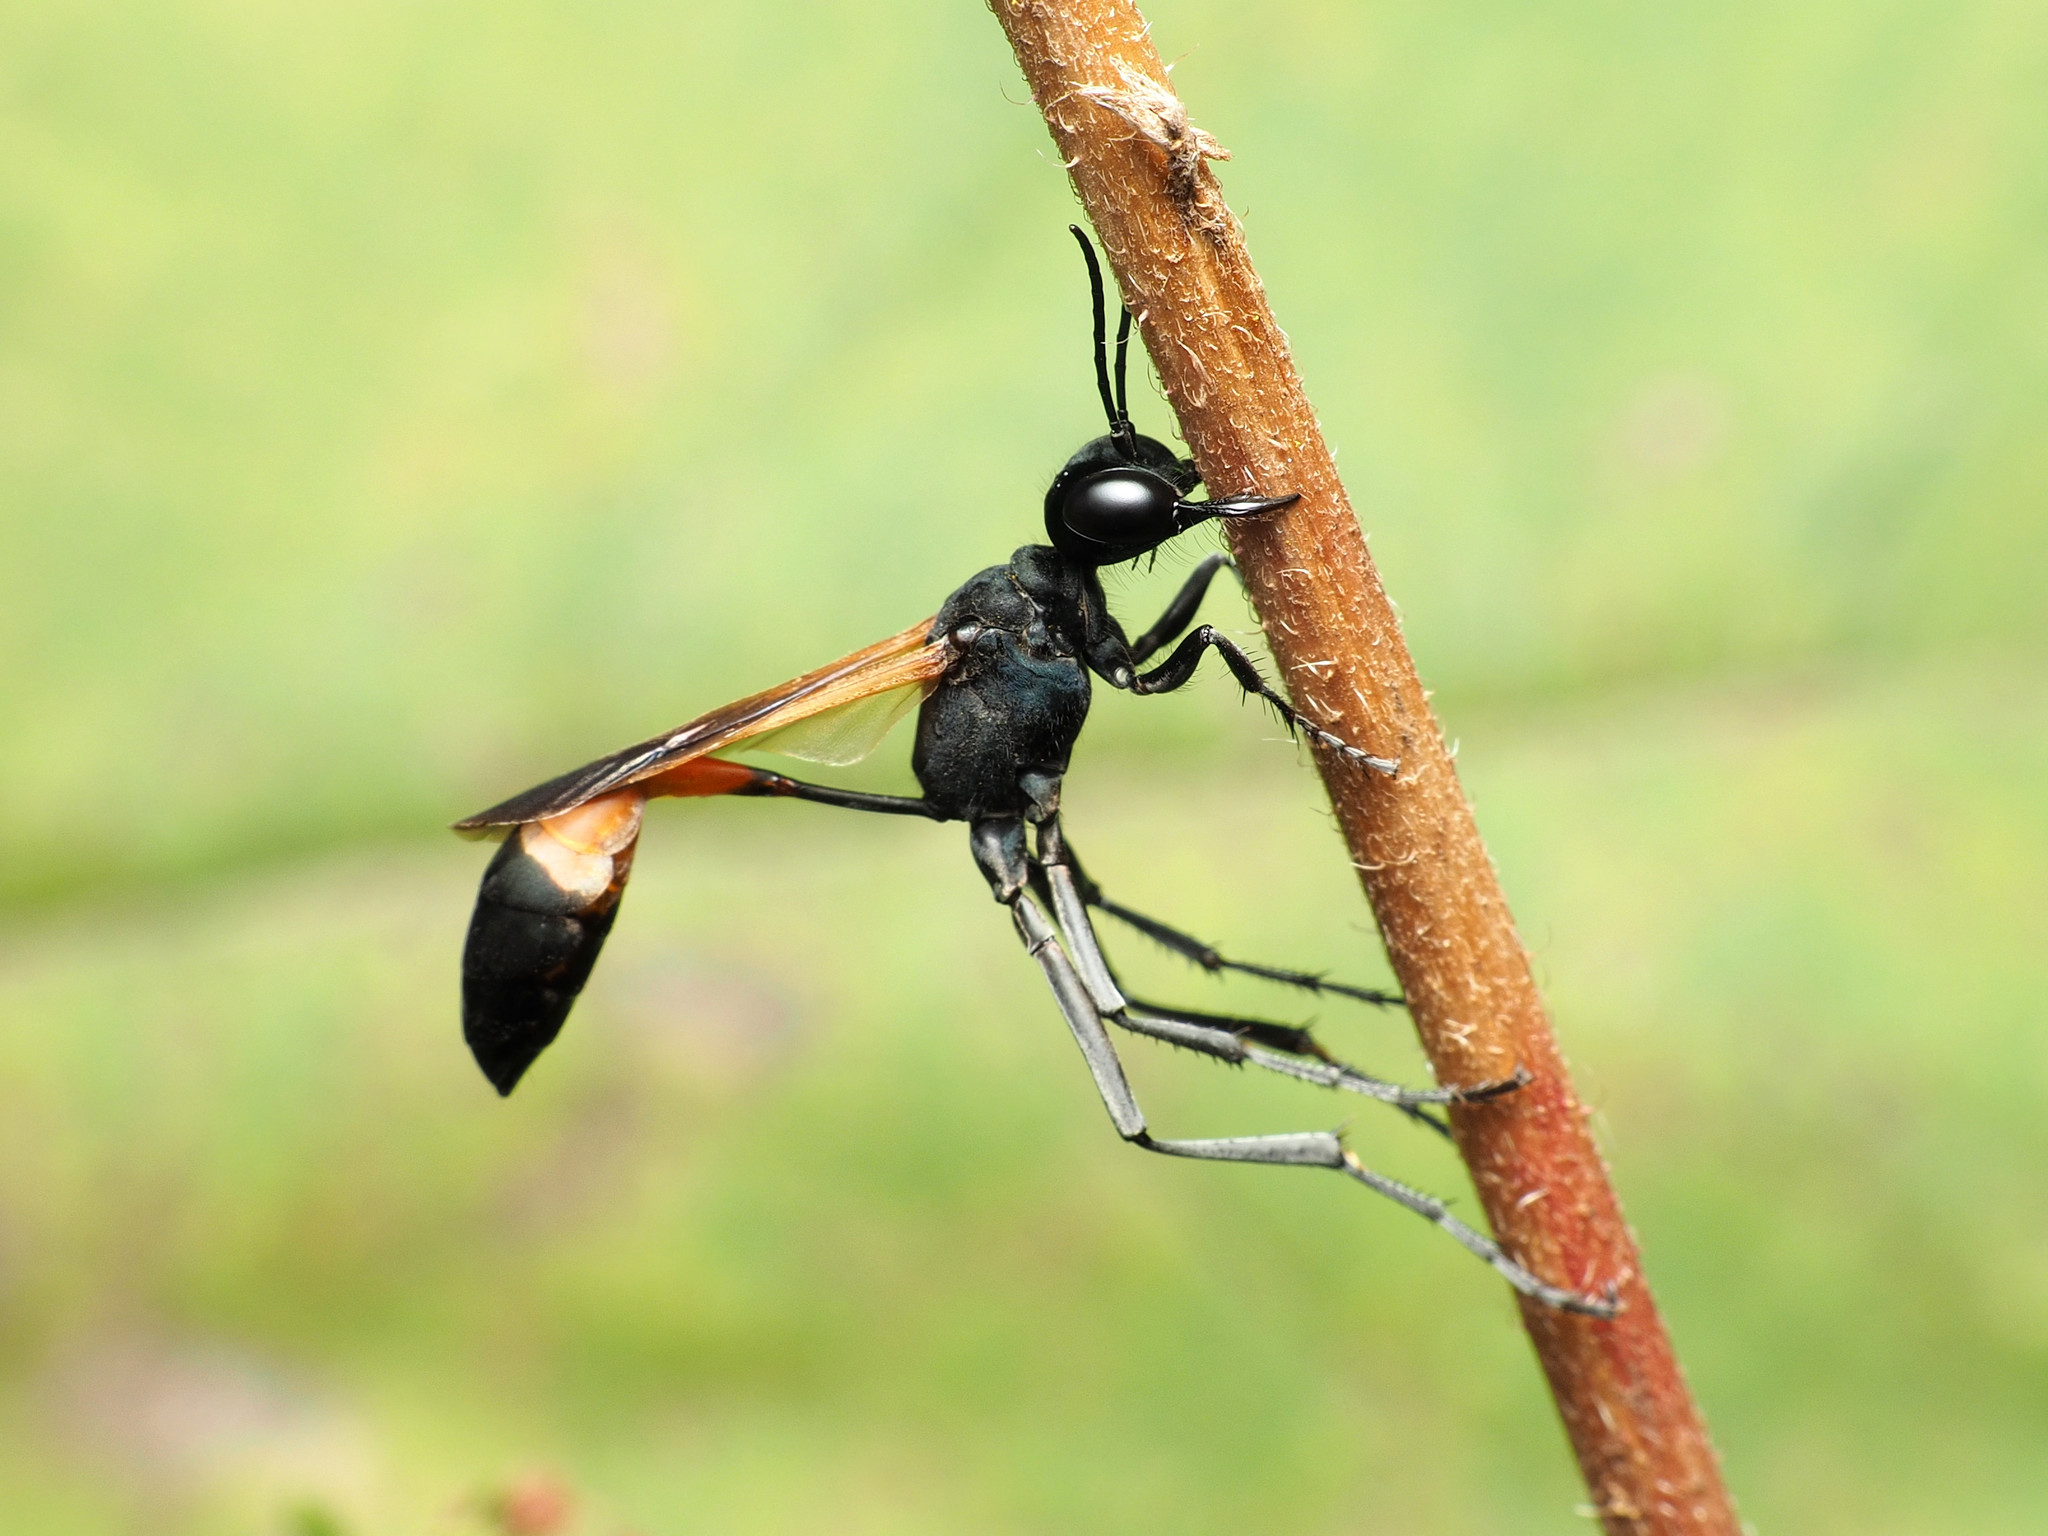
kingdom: Animalia
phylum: Arthropoda
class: Insecta
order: Hymenoptera
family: Sphecidae
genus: Ammophila
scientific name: Ammophila pictipennis
